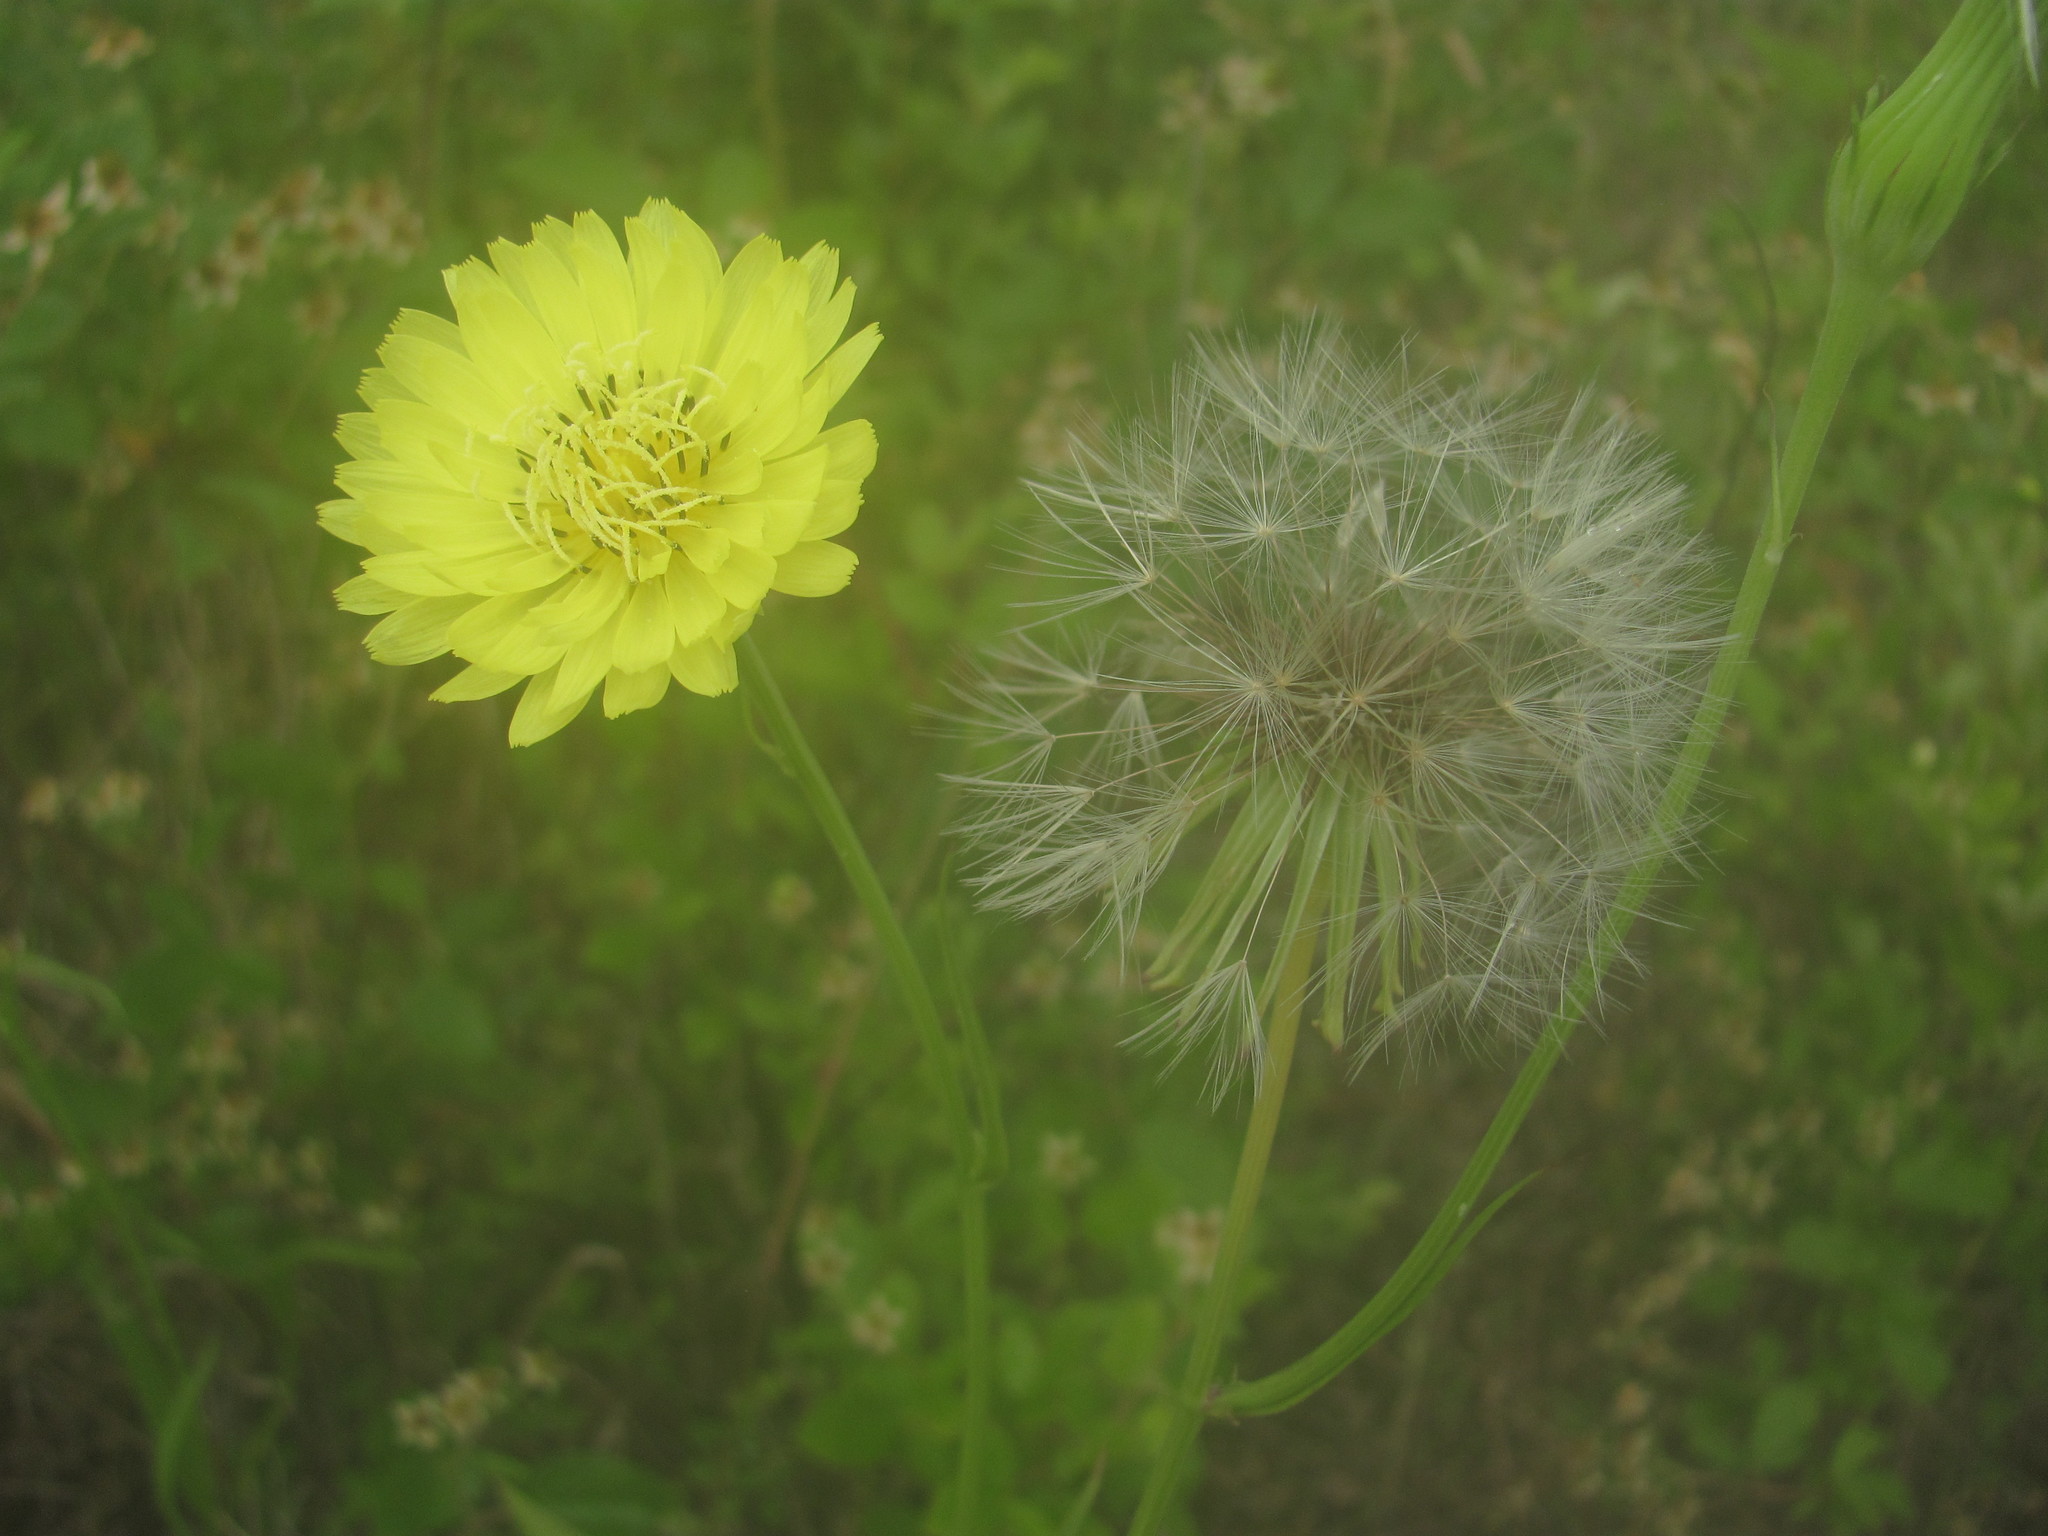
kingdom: Plantae
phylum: Tracheophyta
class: Magnoliopsida
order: Asterales
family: Asteraceae
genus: Pyrrhopappus
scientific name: Pyrrhopappus carolinianus
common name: Carolina desert-chicory
